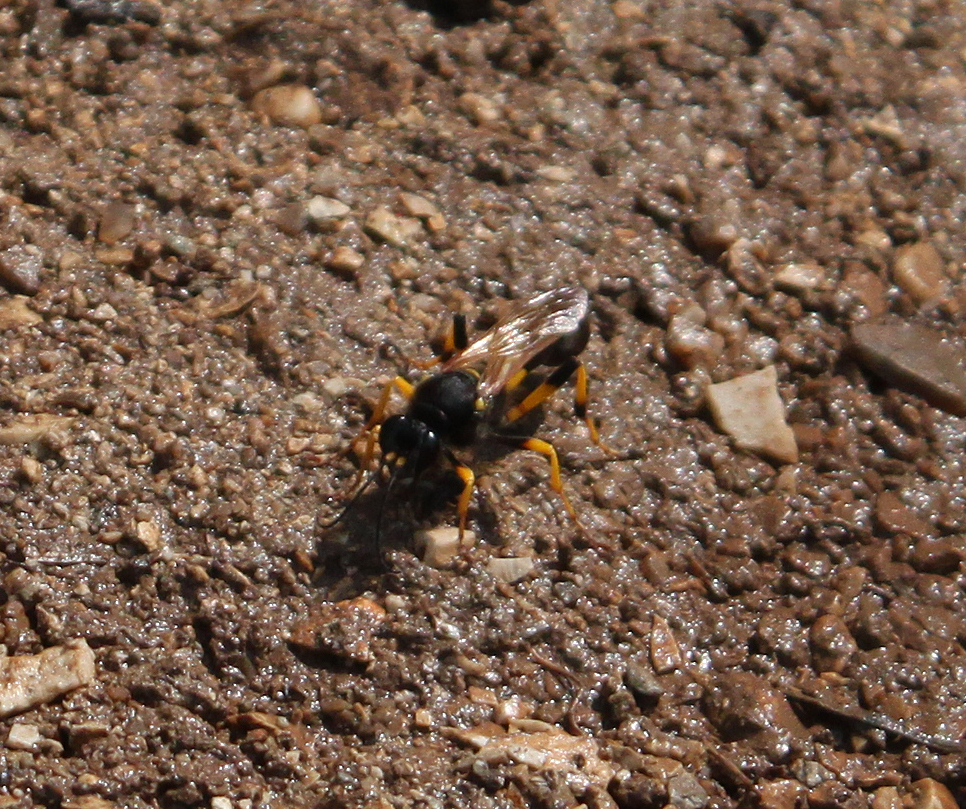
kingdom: Animalia
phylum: Arthropoda
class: Insecta
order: Hymenoptera
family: Sphecidae
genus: Sceliphron
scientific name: Sceliphron destillatorium
